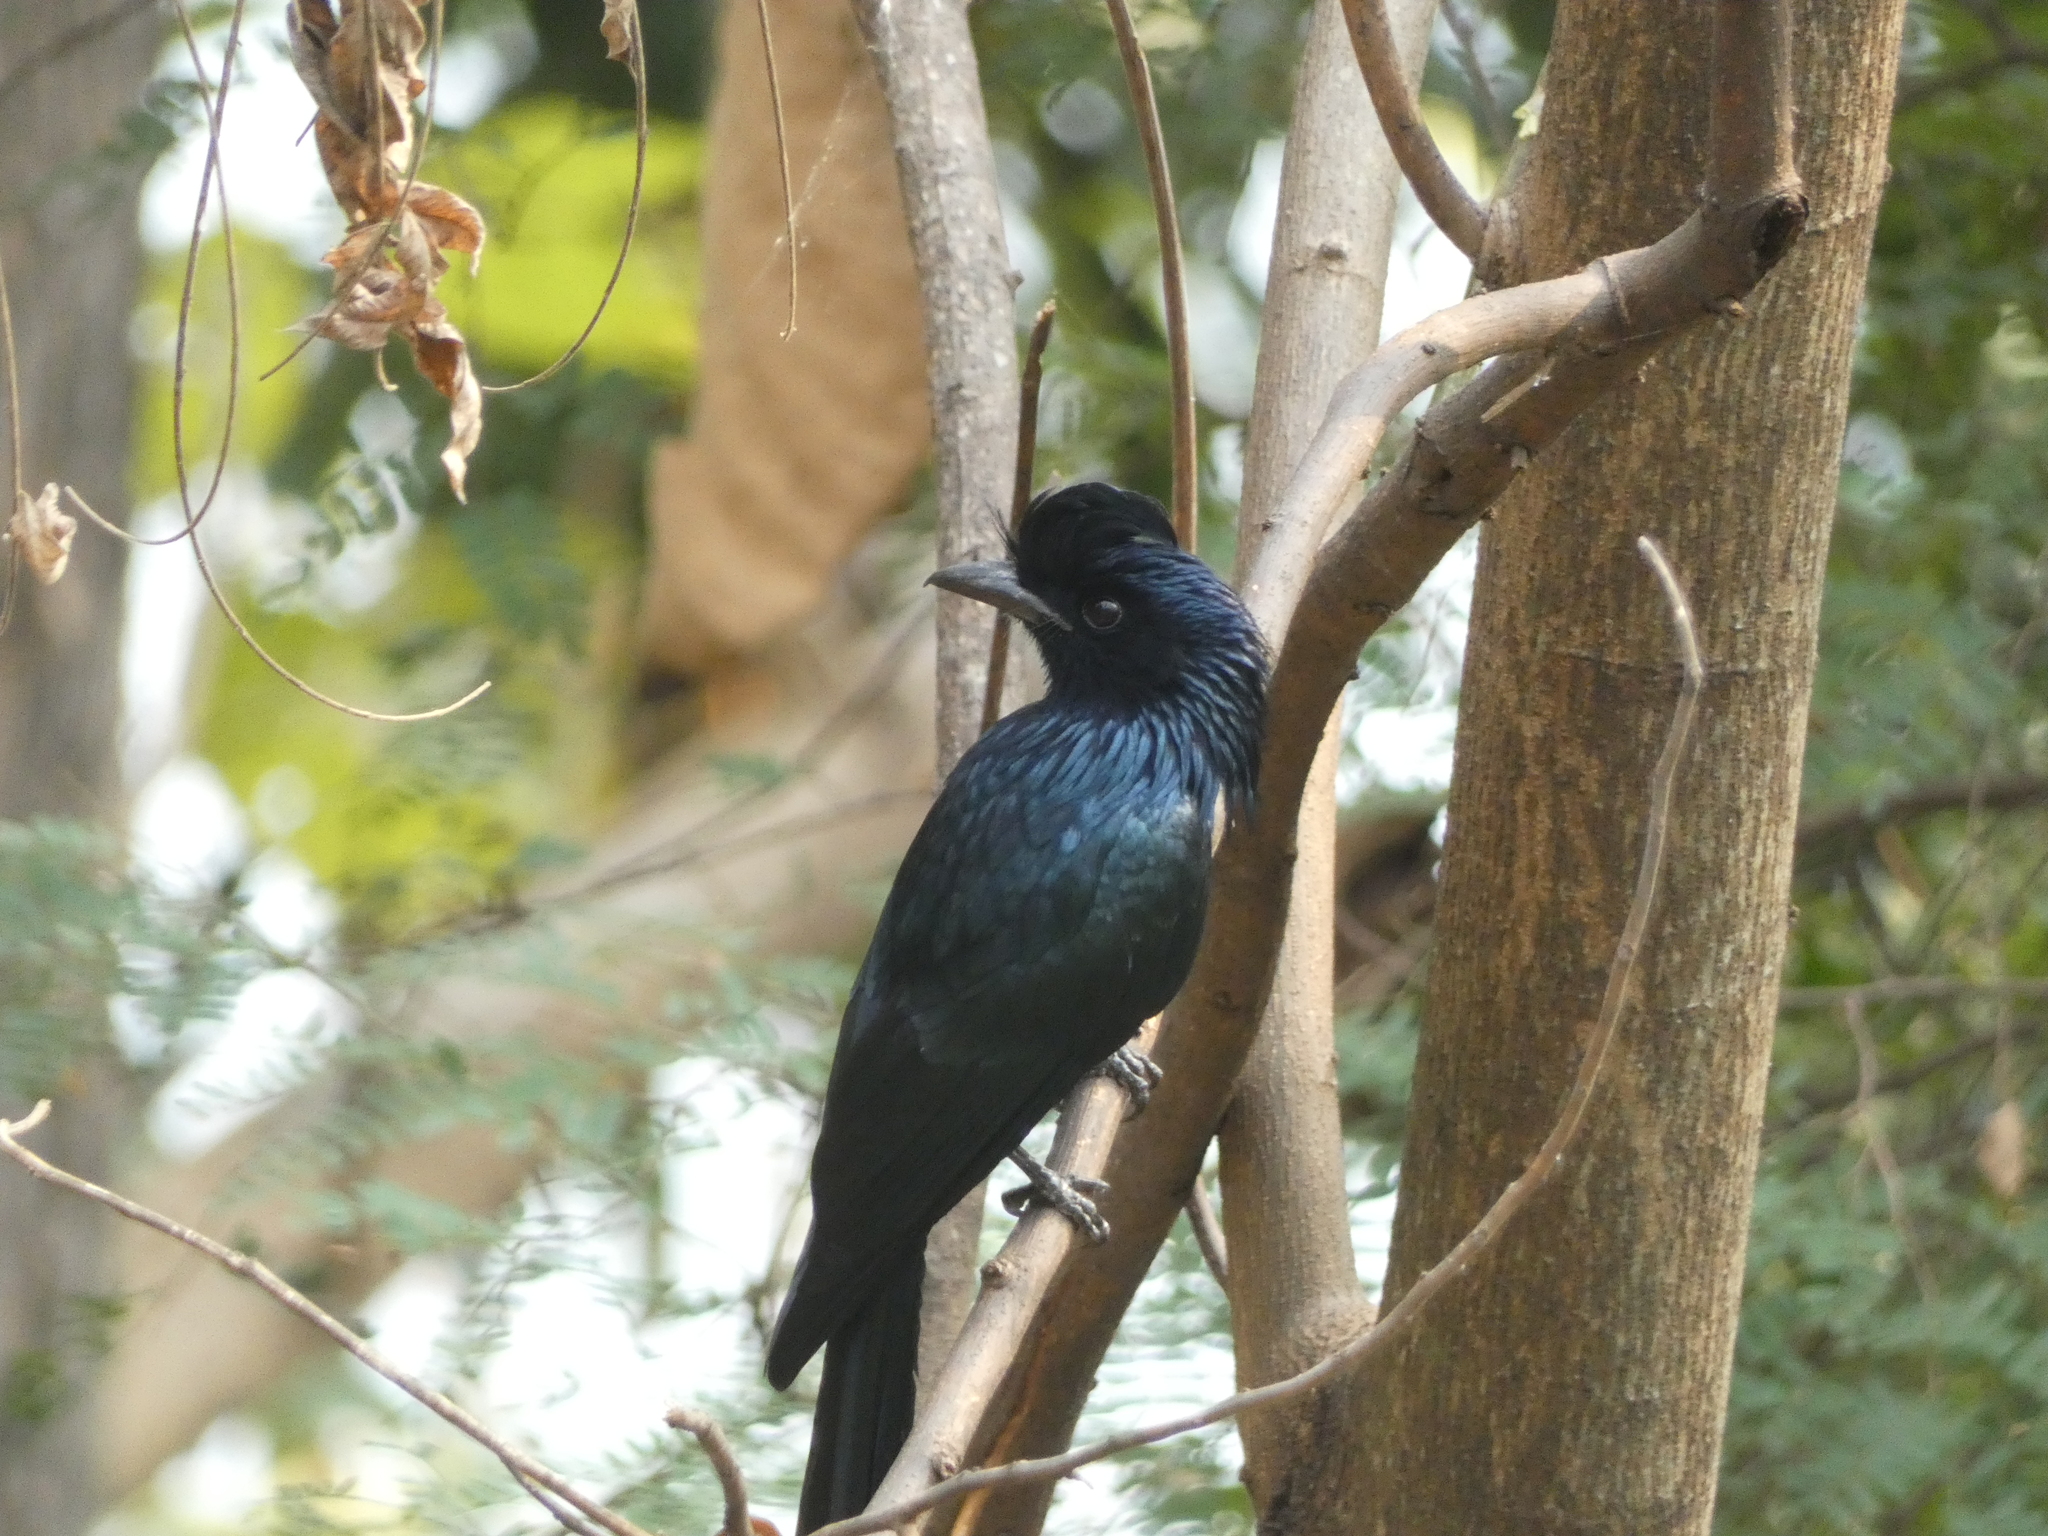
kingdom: Animalia
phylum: Chordata
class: Aves
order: Passeriformes
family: Dicruridae
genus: Dicrurus
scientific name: Dicrurus paradiseus
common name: Greater racket-tailed drongo
